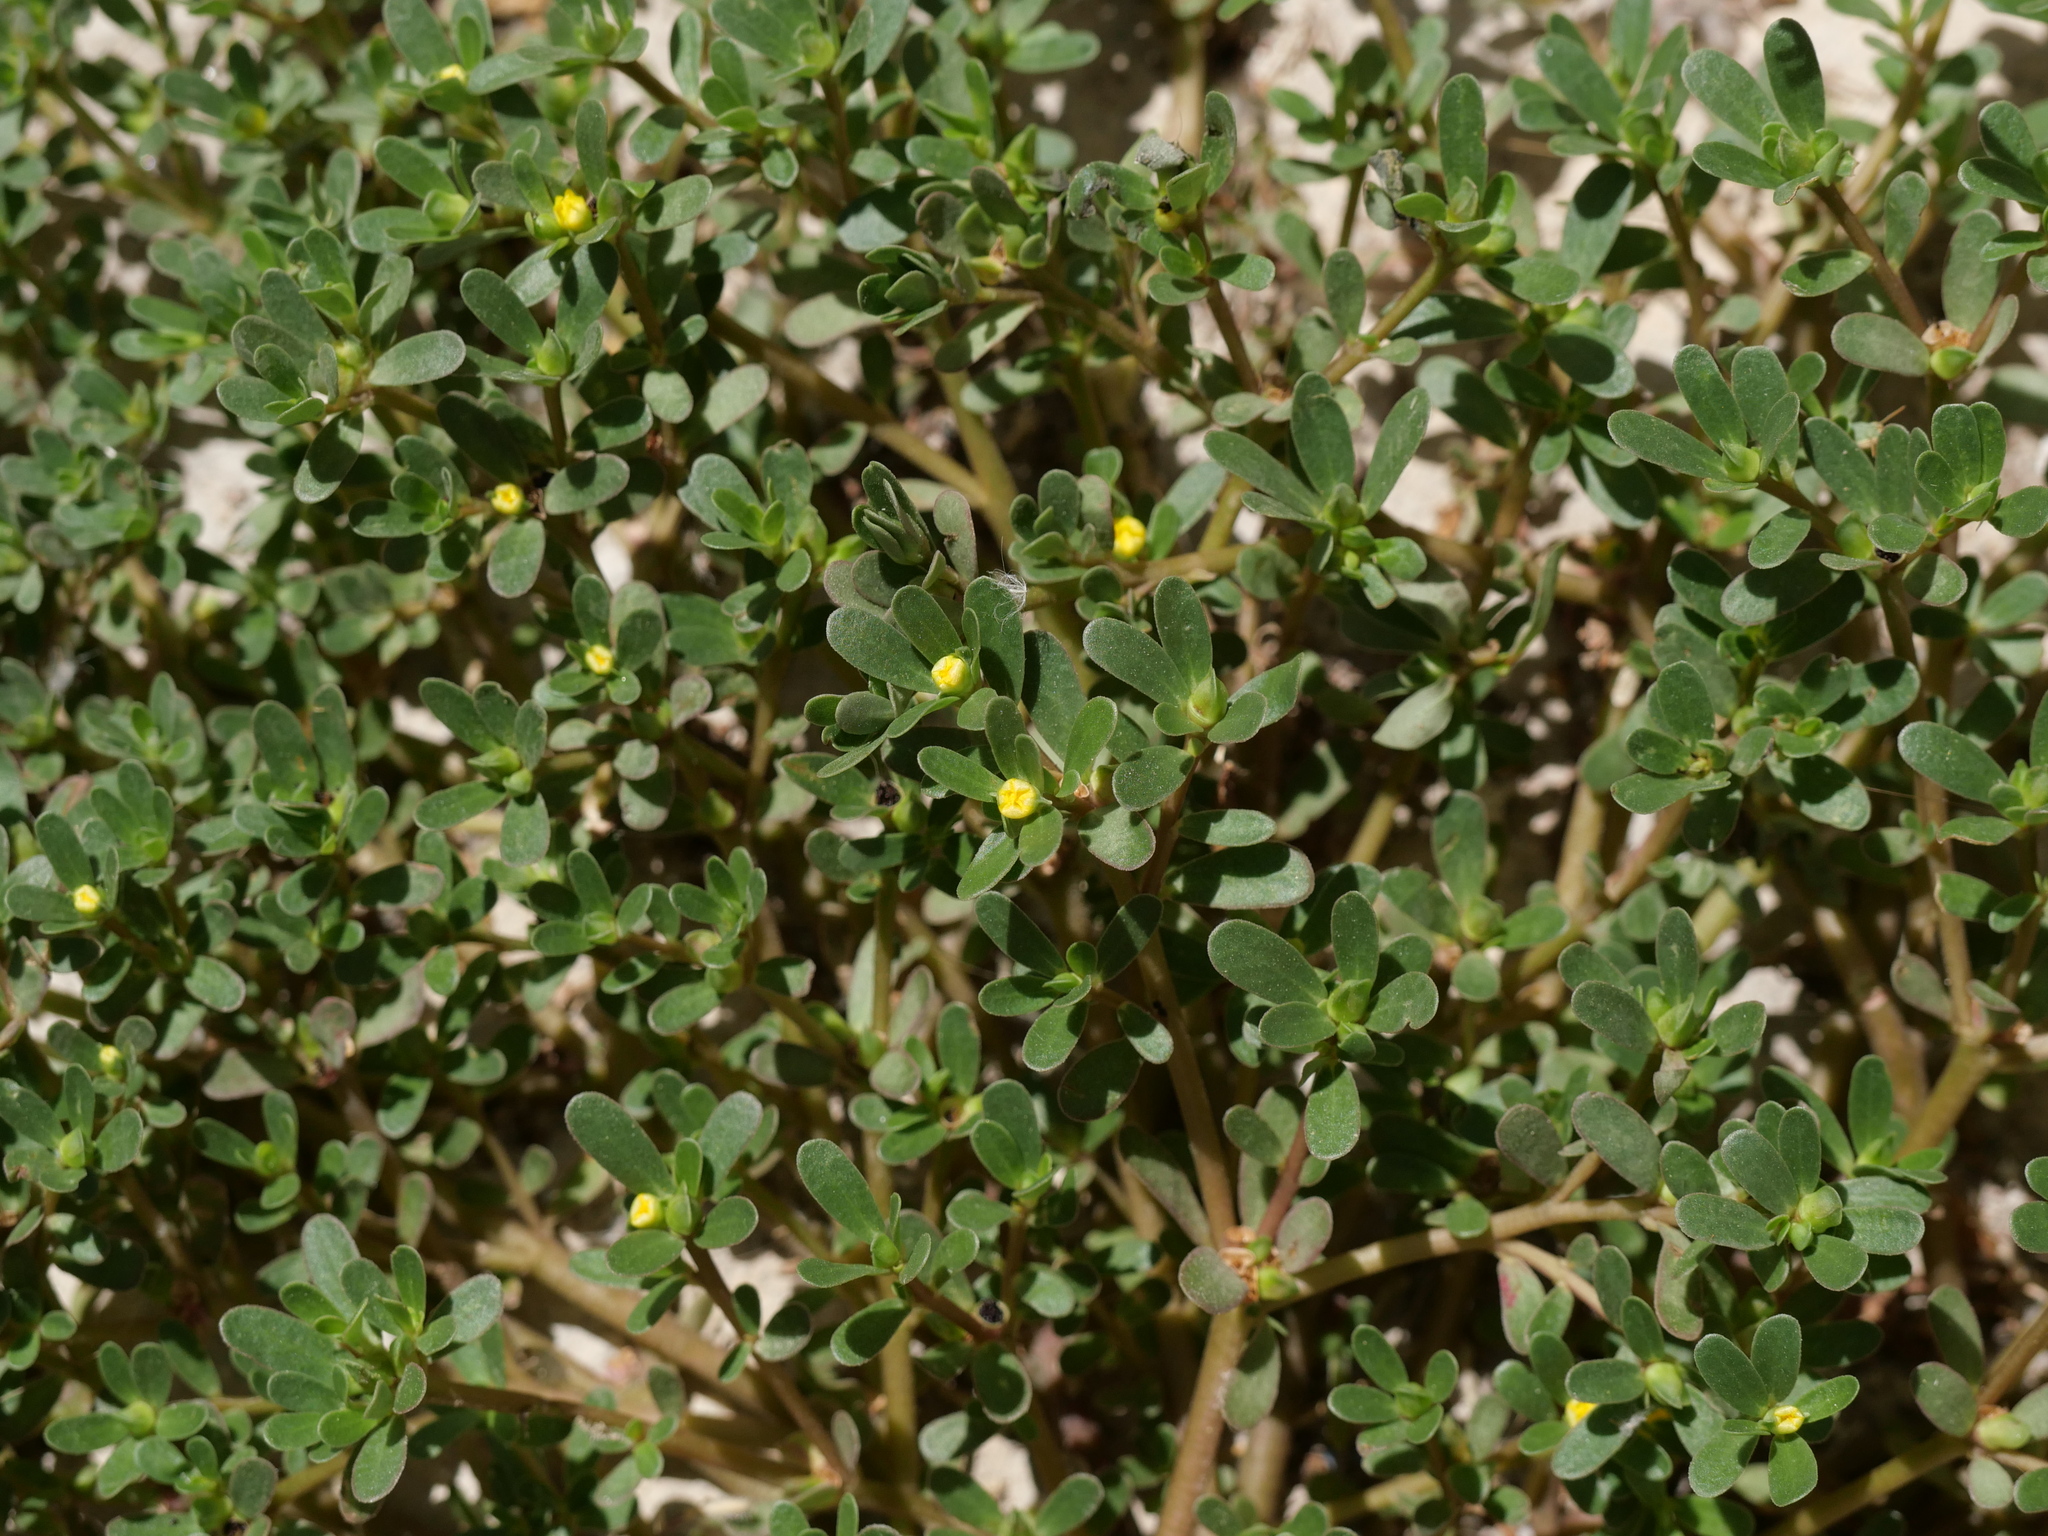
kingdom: Plantae
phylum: Tracheophyta
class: Magnoliopsida
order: Caryophyllales
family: Portulacaceae
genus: Portulaca
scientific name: Portulaca oleracea
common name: Common purslane
